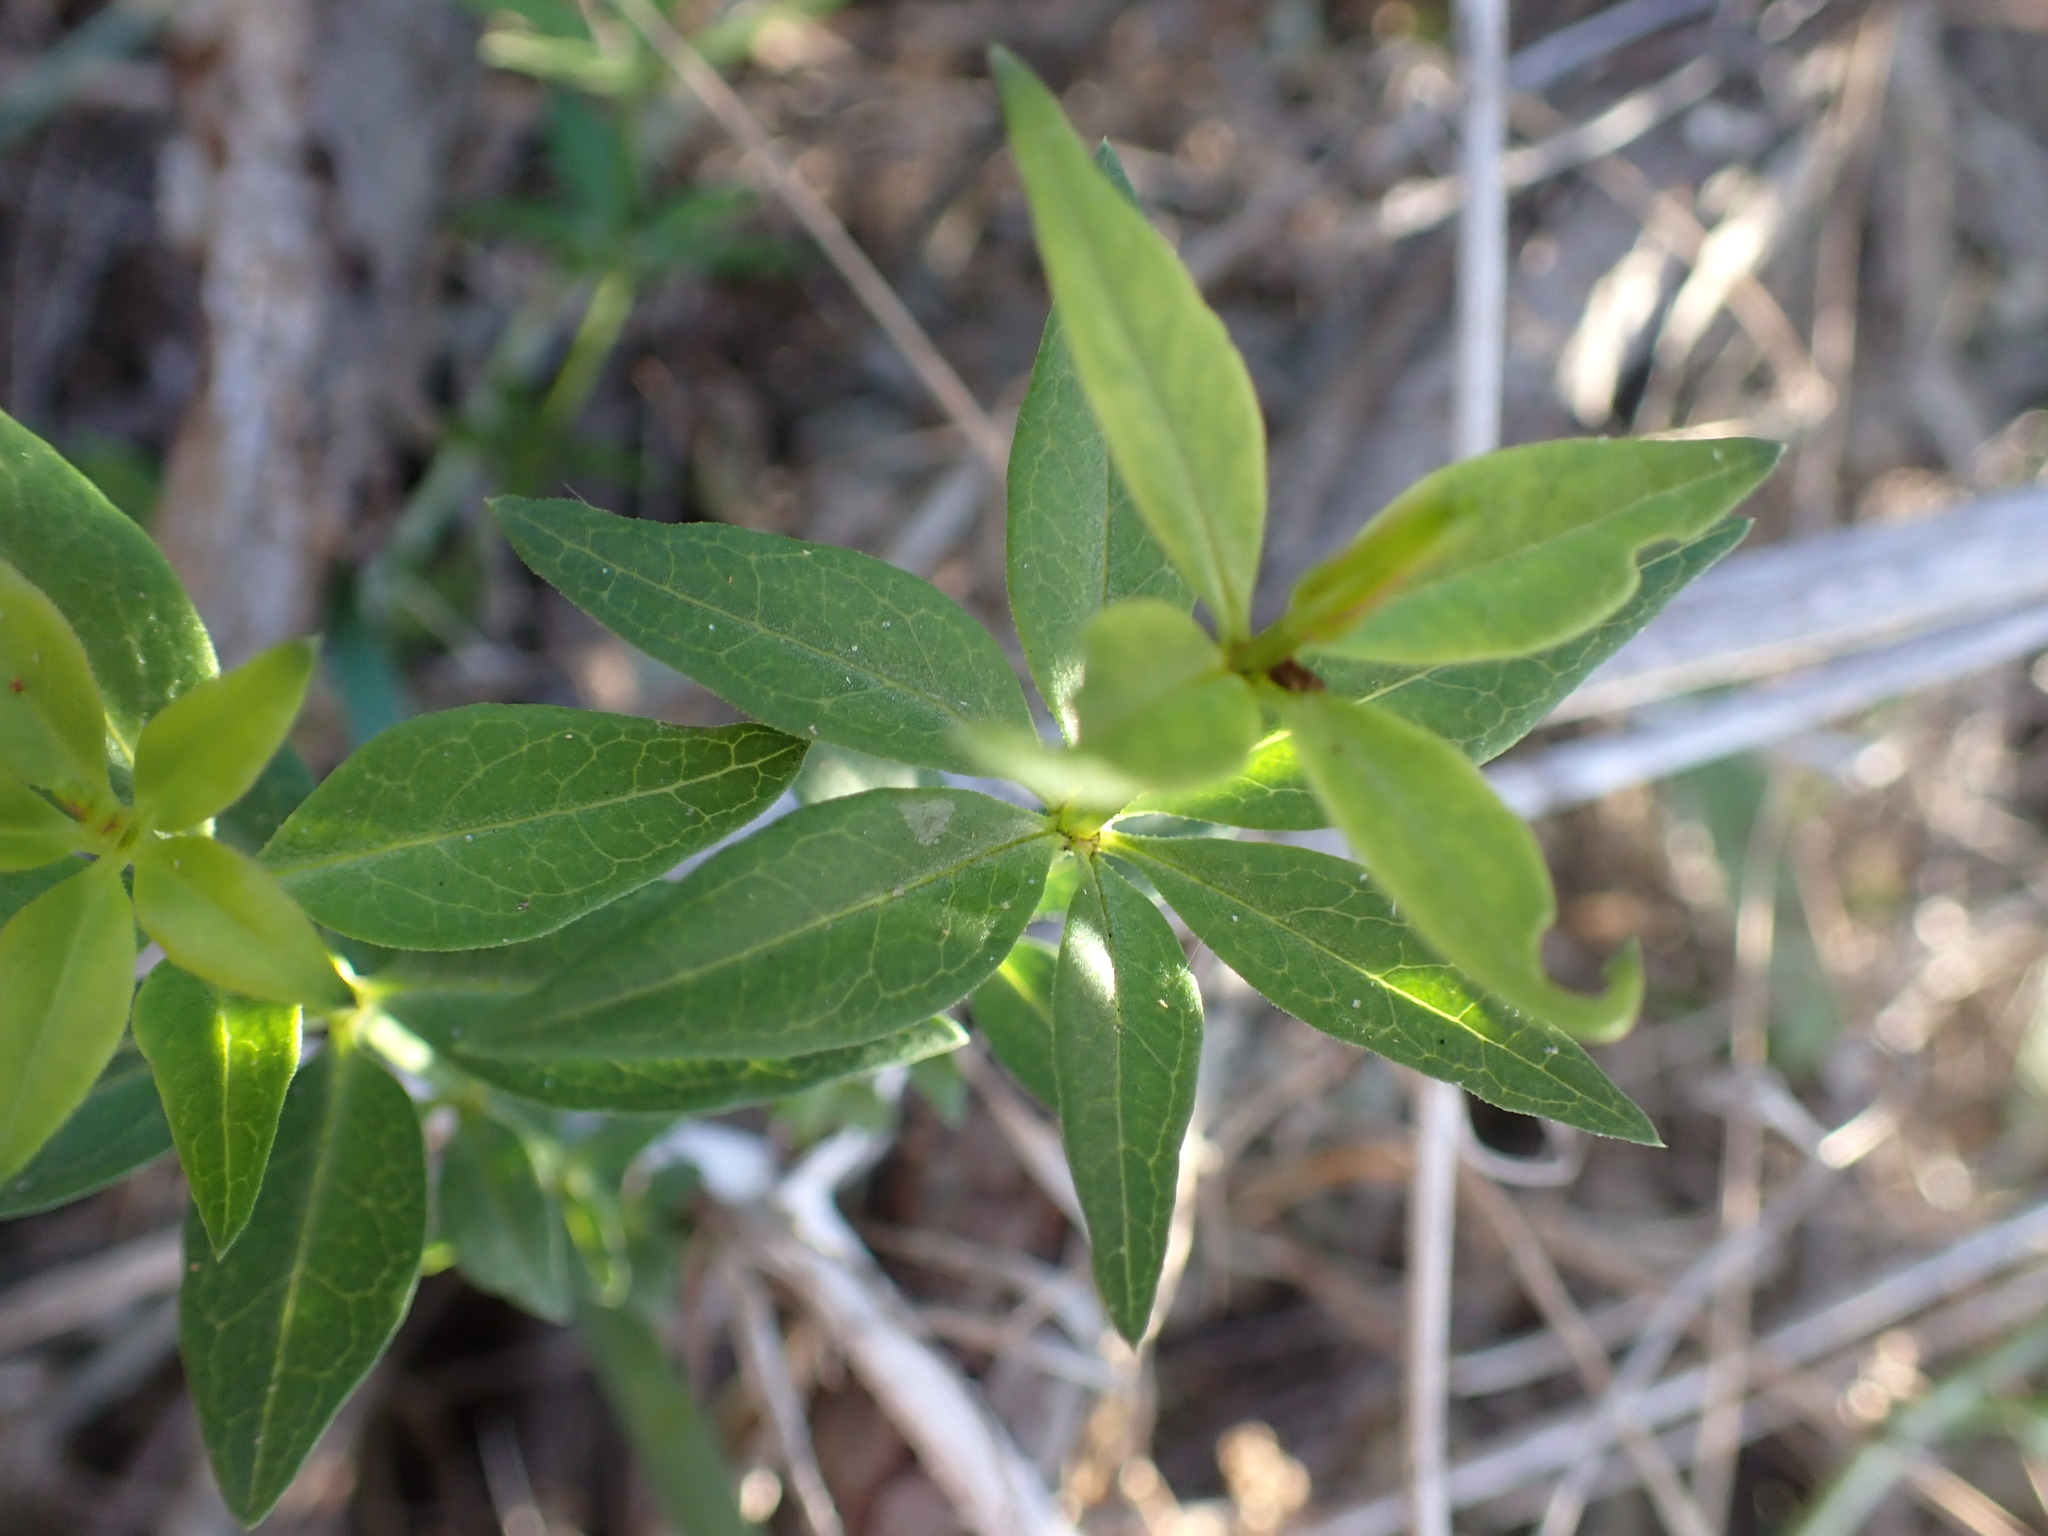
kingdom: Plantae
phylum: Tracheophyta
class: Magnoliopsida
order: Gentianales
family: Rubiaceae
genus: Rubia
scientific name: Rubia tinctorum
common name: Dyer's madder
